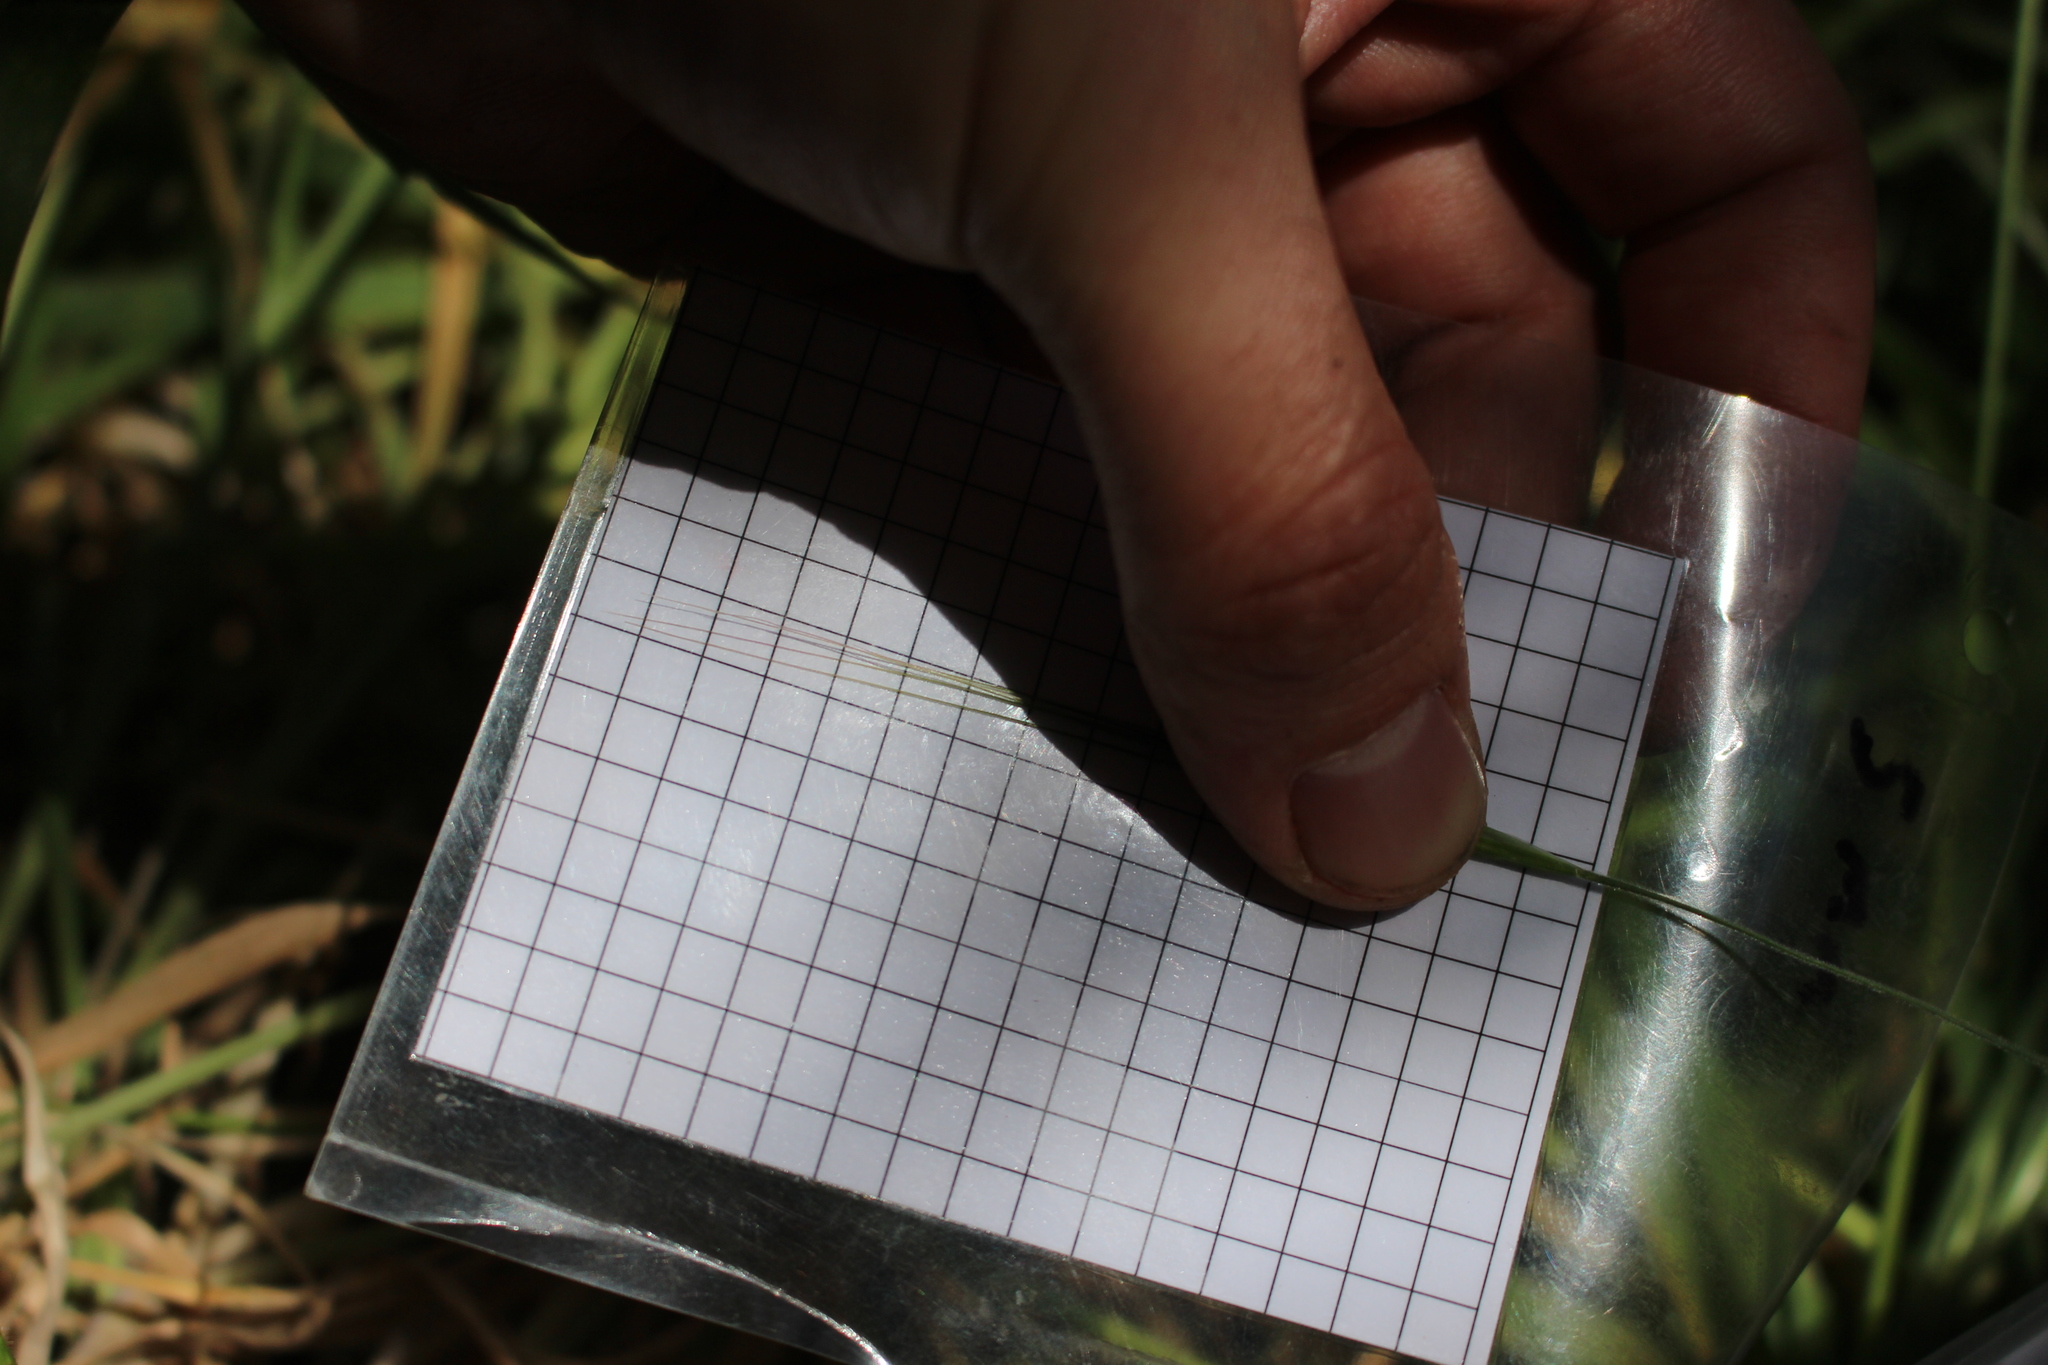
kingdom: Plantae
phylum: Tracheophyta
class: Liliopsida
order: Poales
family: Poaceae
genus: Bromus
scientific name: Bromus diandrus
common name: Ripgut brome
